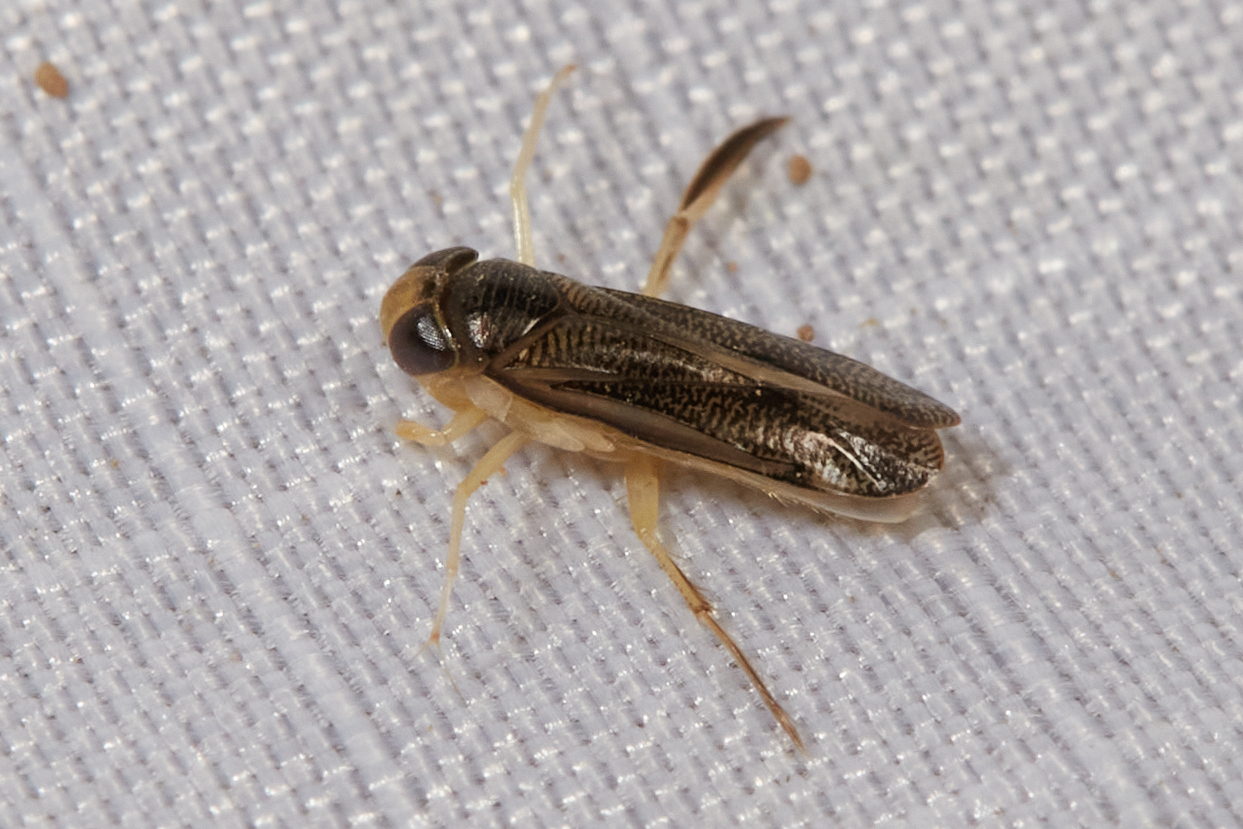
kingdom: Animalia
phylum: Arthropoda
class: Insecta
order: Hemiptera
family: Corixidae
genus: Trichocorixa
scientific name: Trichocorixa verticalis
